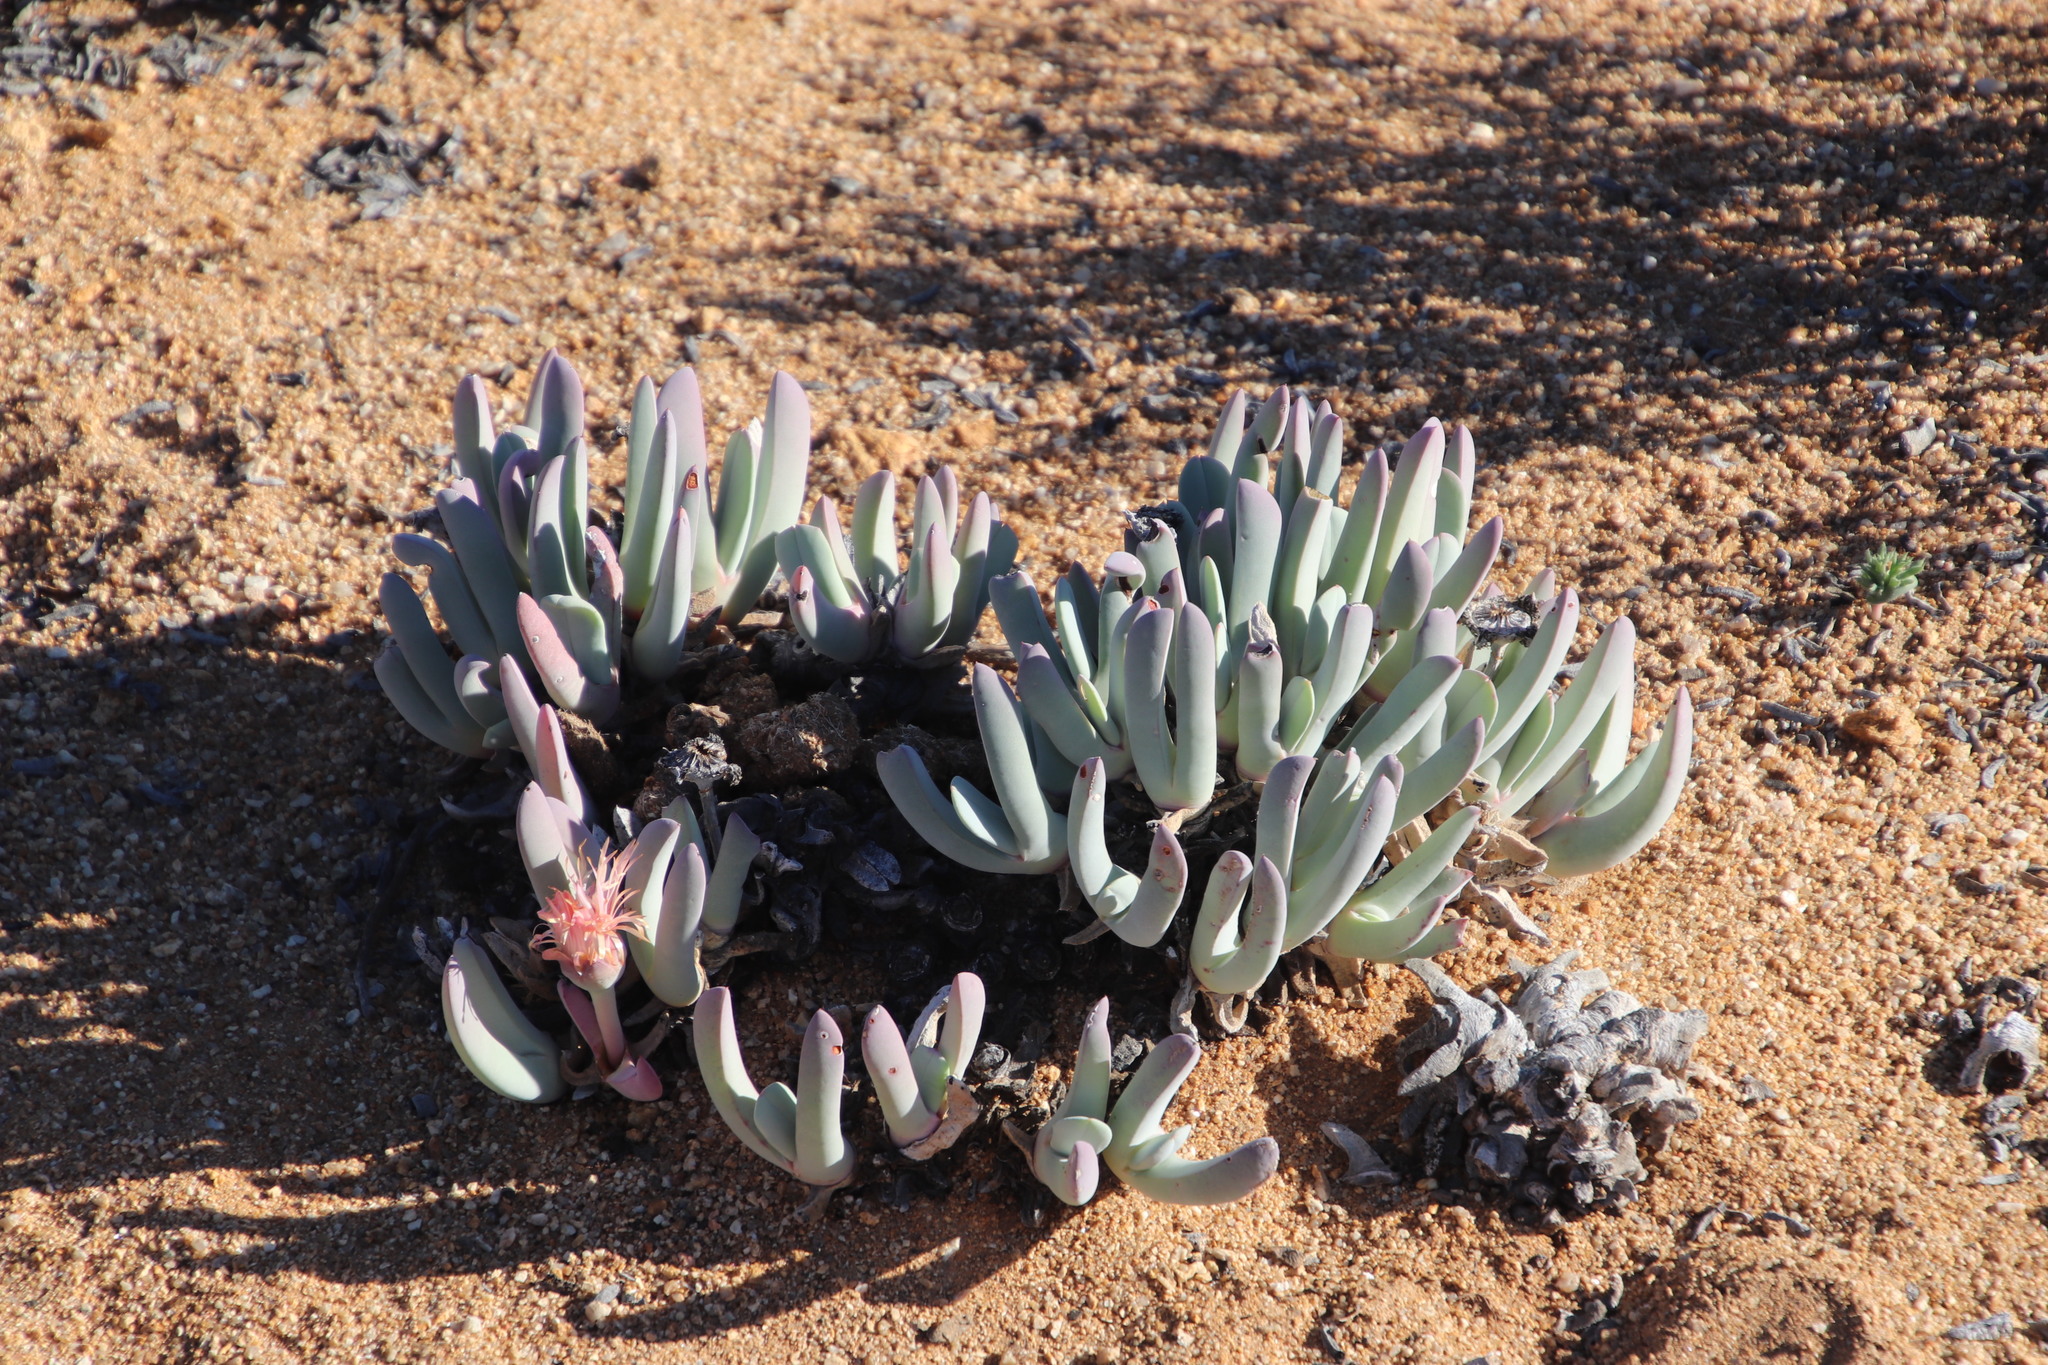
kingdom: Plantae
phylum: Tracheophyta
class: Magnoliopsida
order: Caryophyllales
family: Aizoaceae
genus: Cheiridopsis
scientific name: Cheiridopsis denticulata
